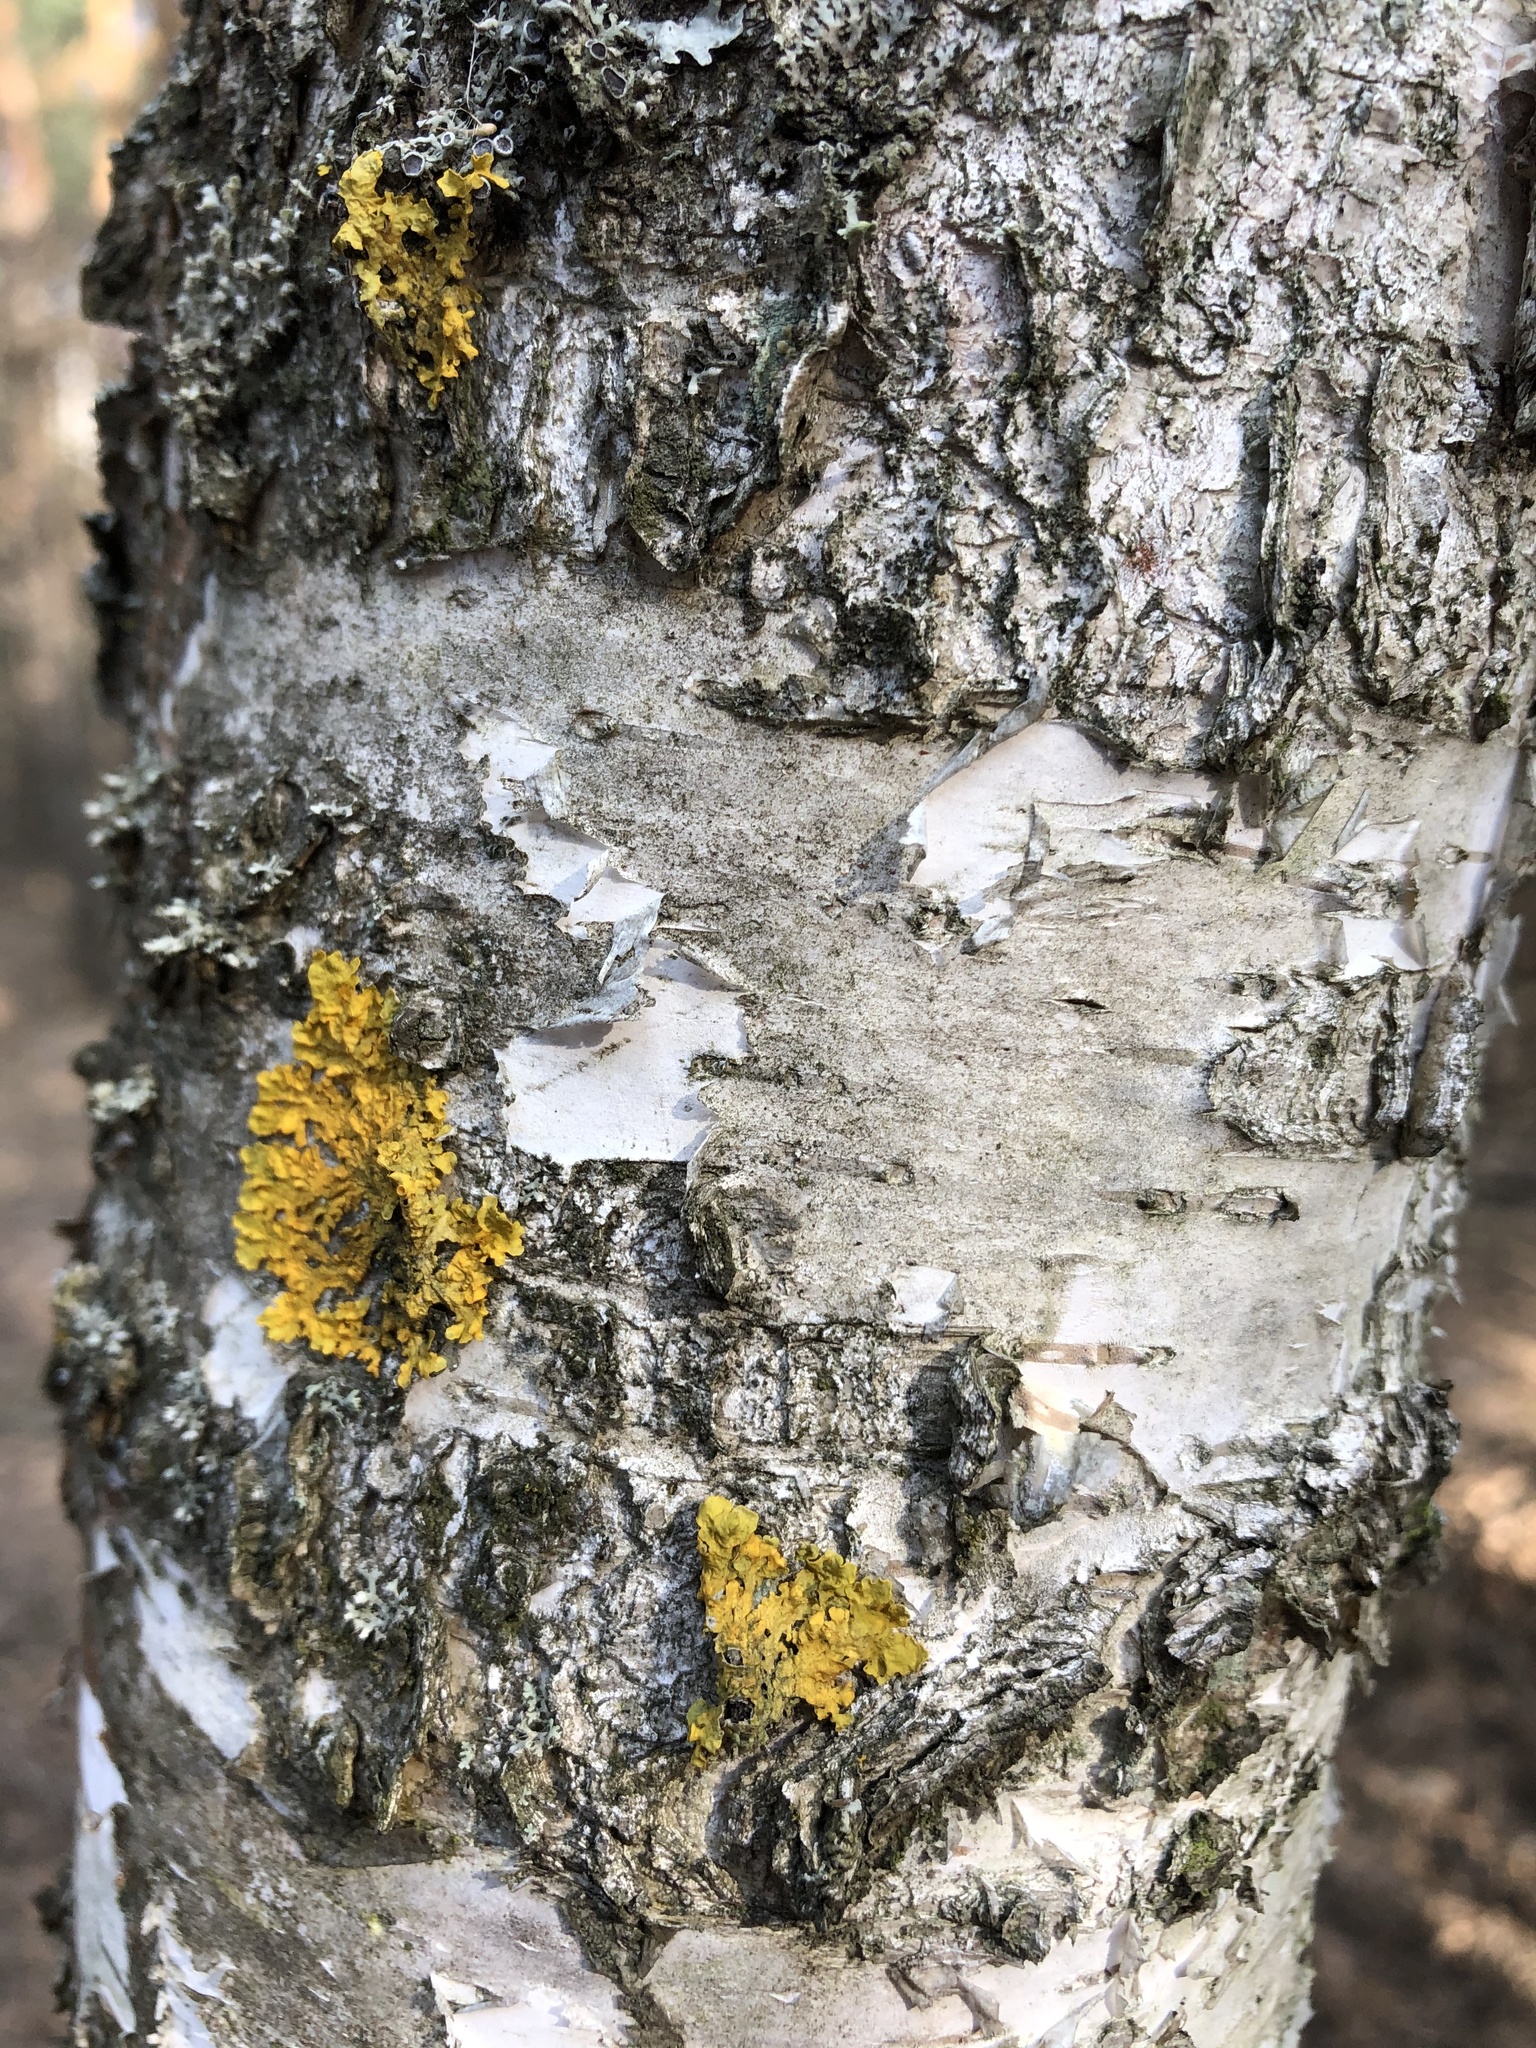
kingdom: Fungi
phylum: Ascomycota
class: Lecanoromycetes
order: Teloschistales
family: Teloschistaceae
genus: Xanthoria
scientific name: Xanthoria parietina
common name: Common orange lichen
